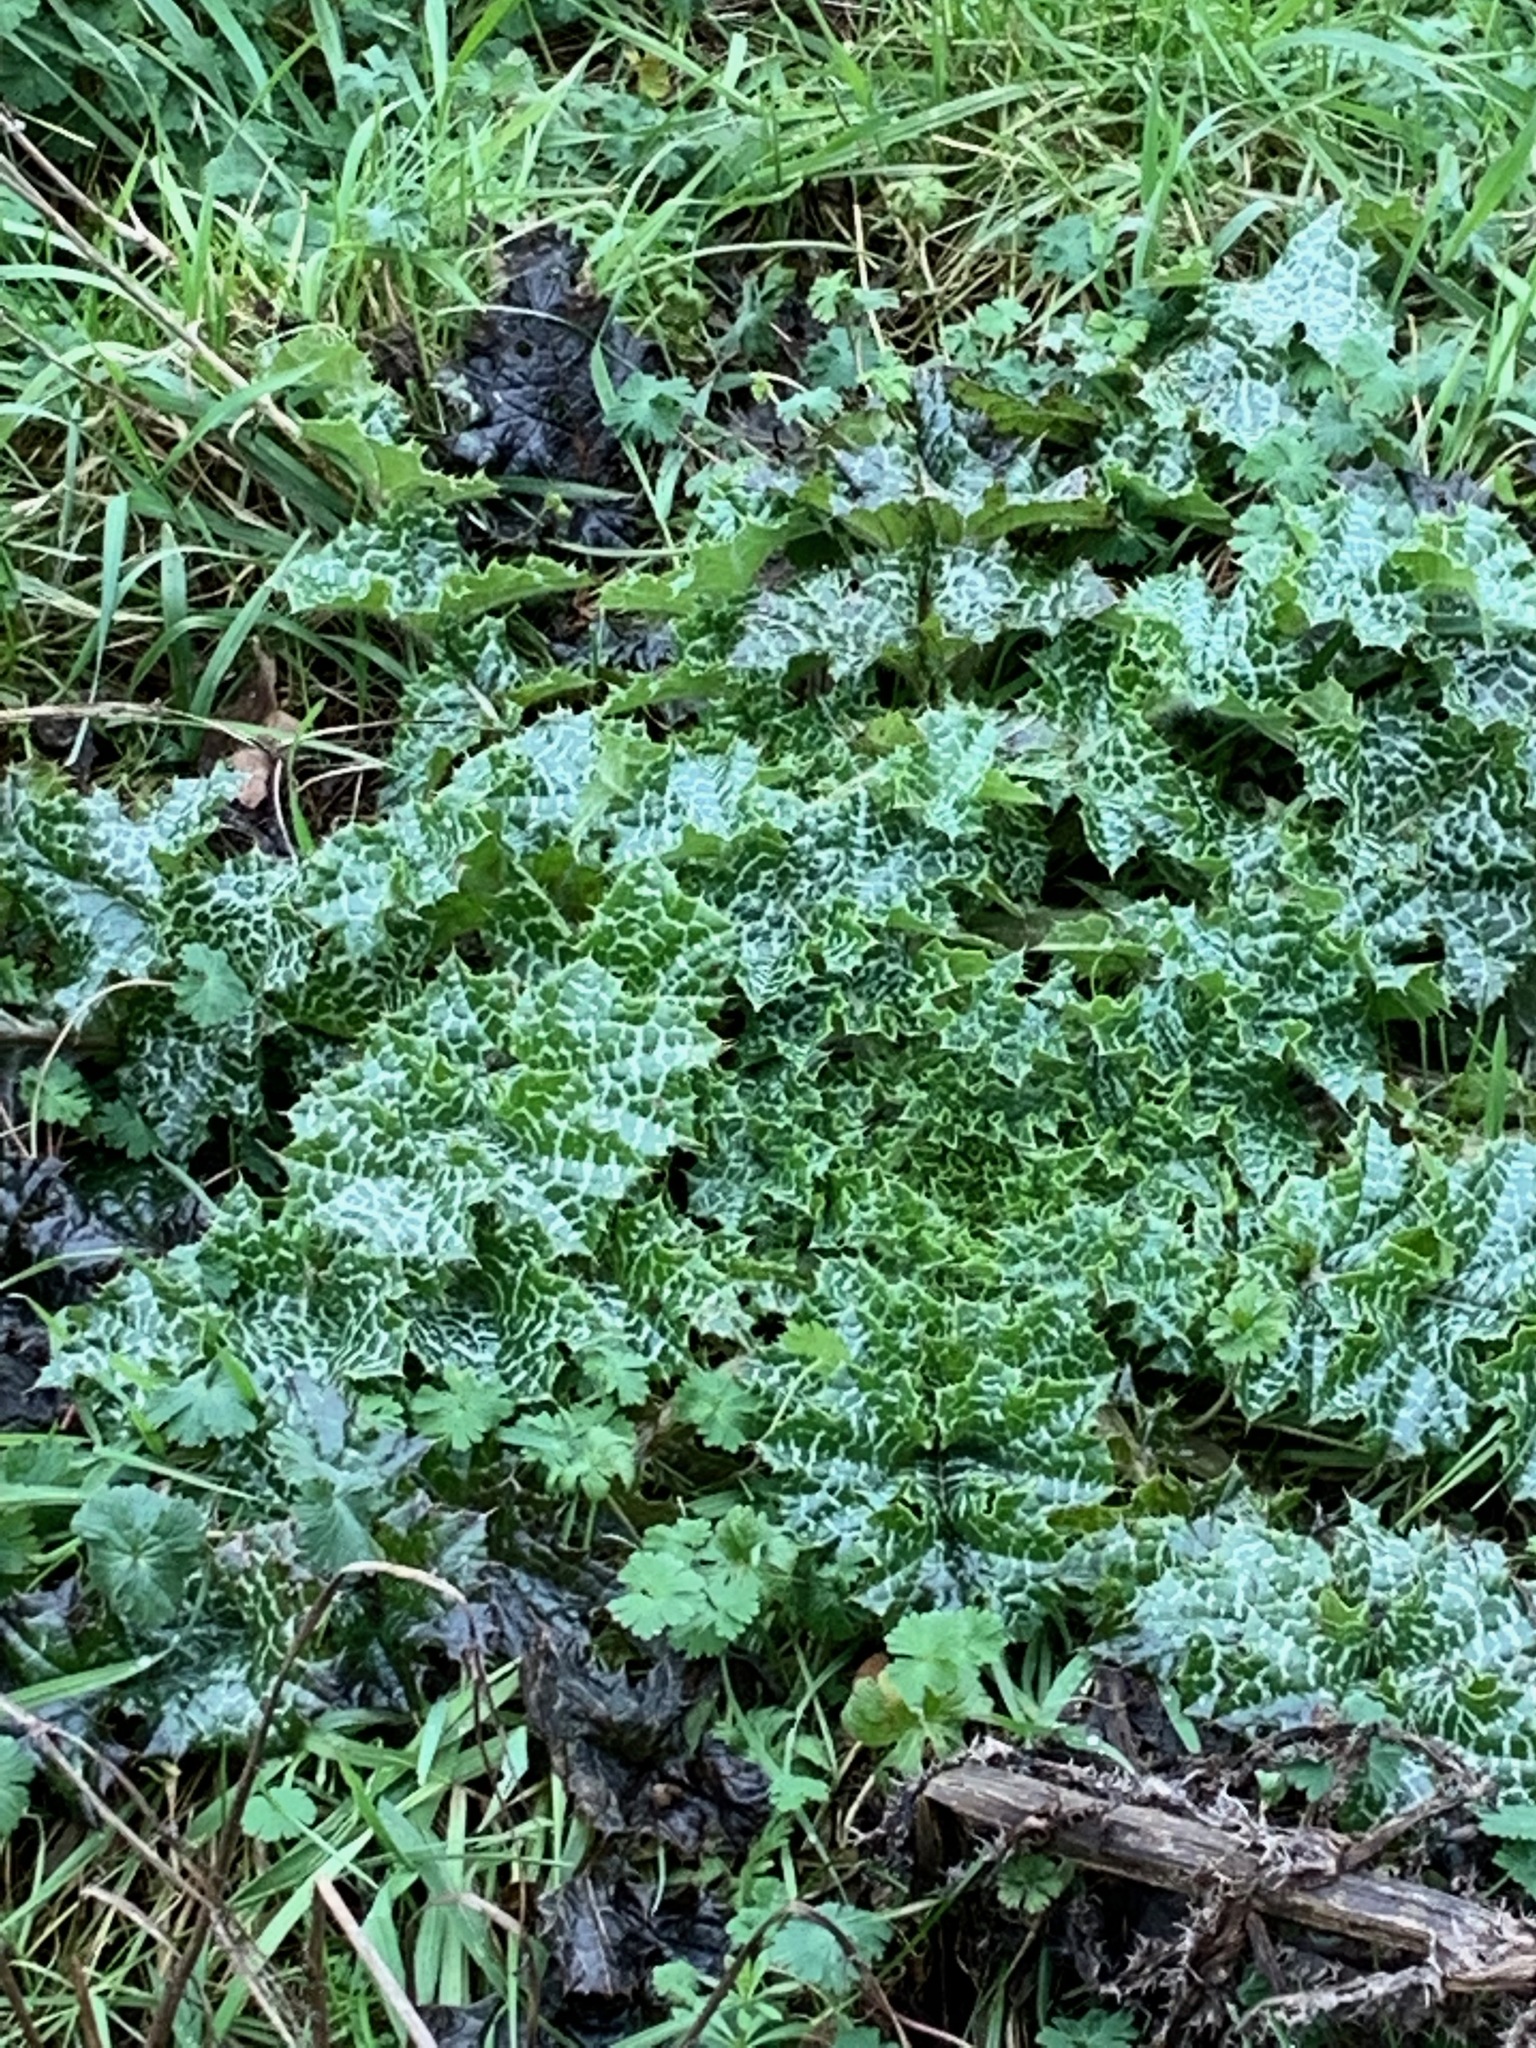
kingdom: Plantae
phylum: Tracheophyta
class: Magnoliopsida
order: Asterales
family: Asteraceae
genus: Silybum
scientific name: Silybum marianum
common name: Milk thistle
